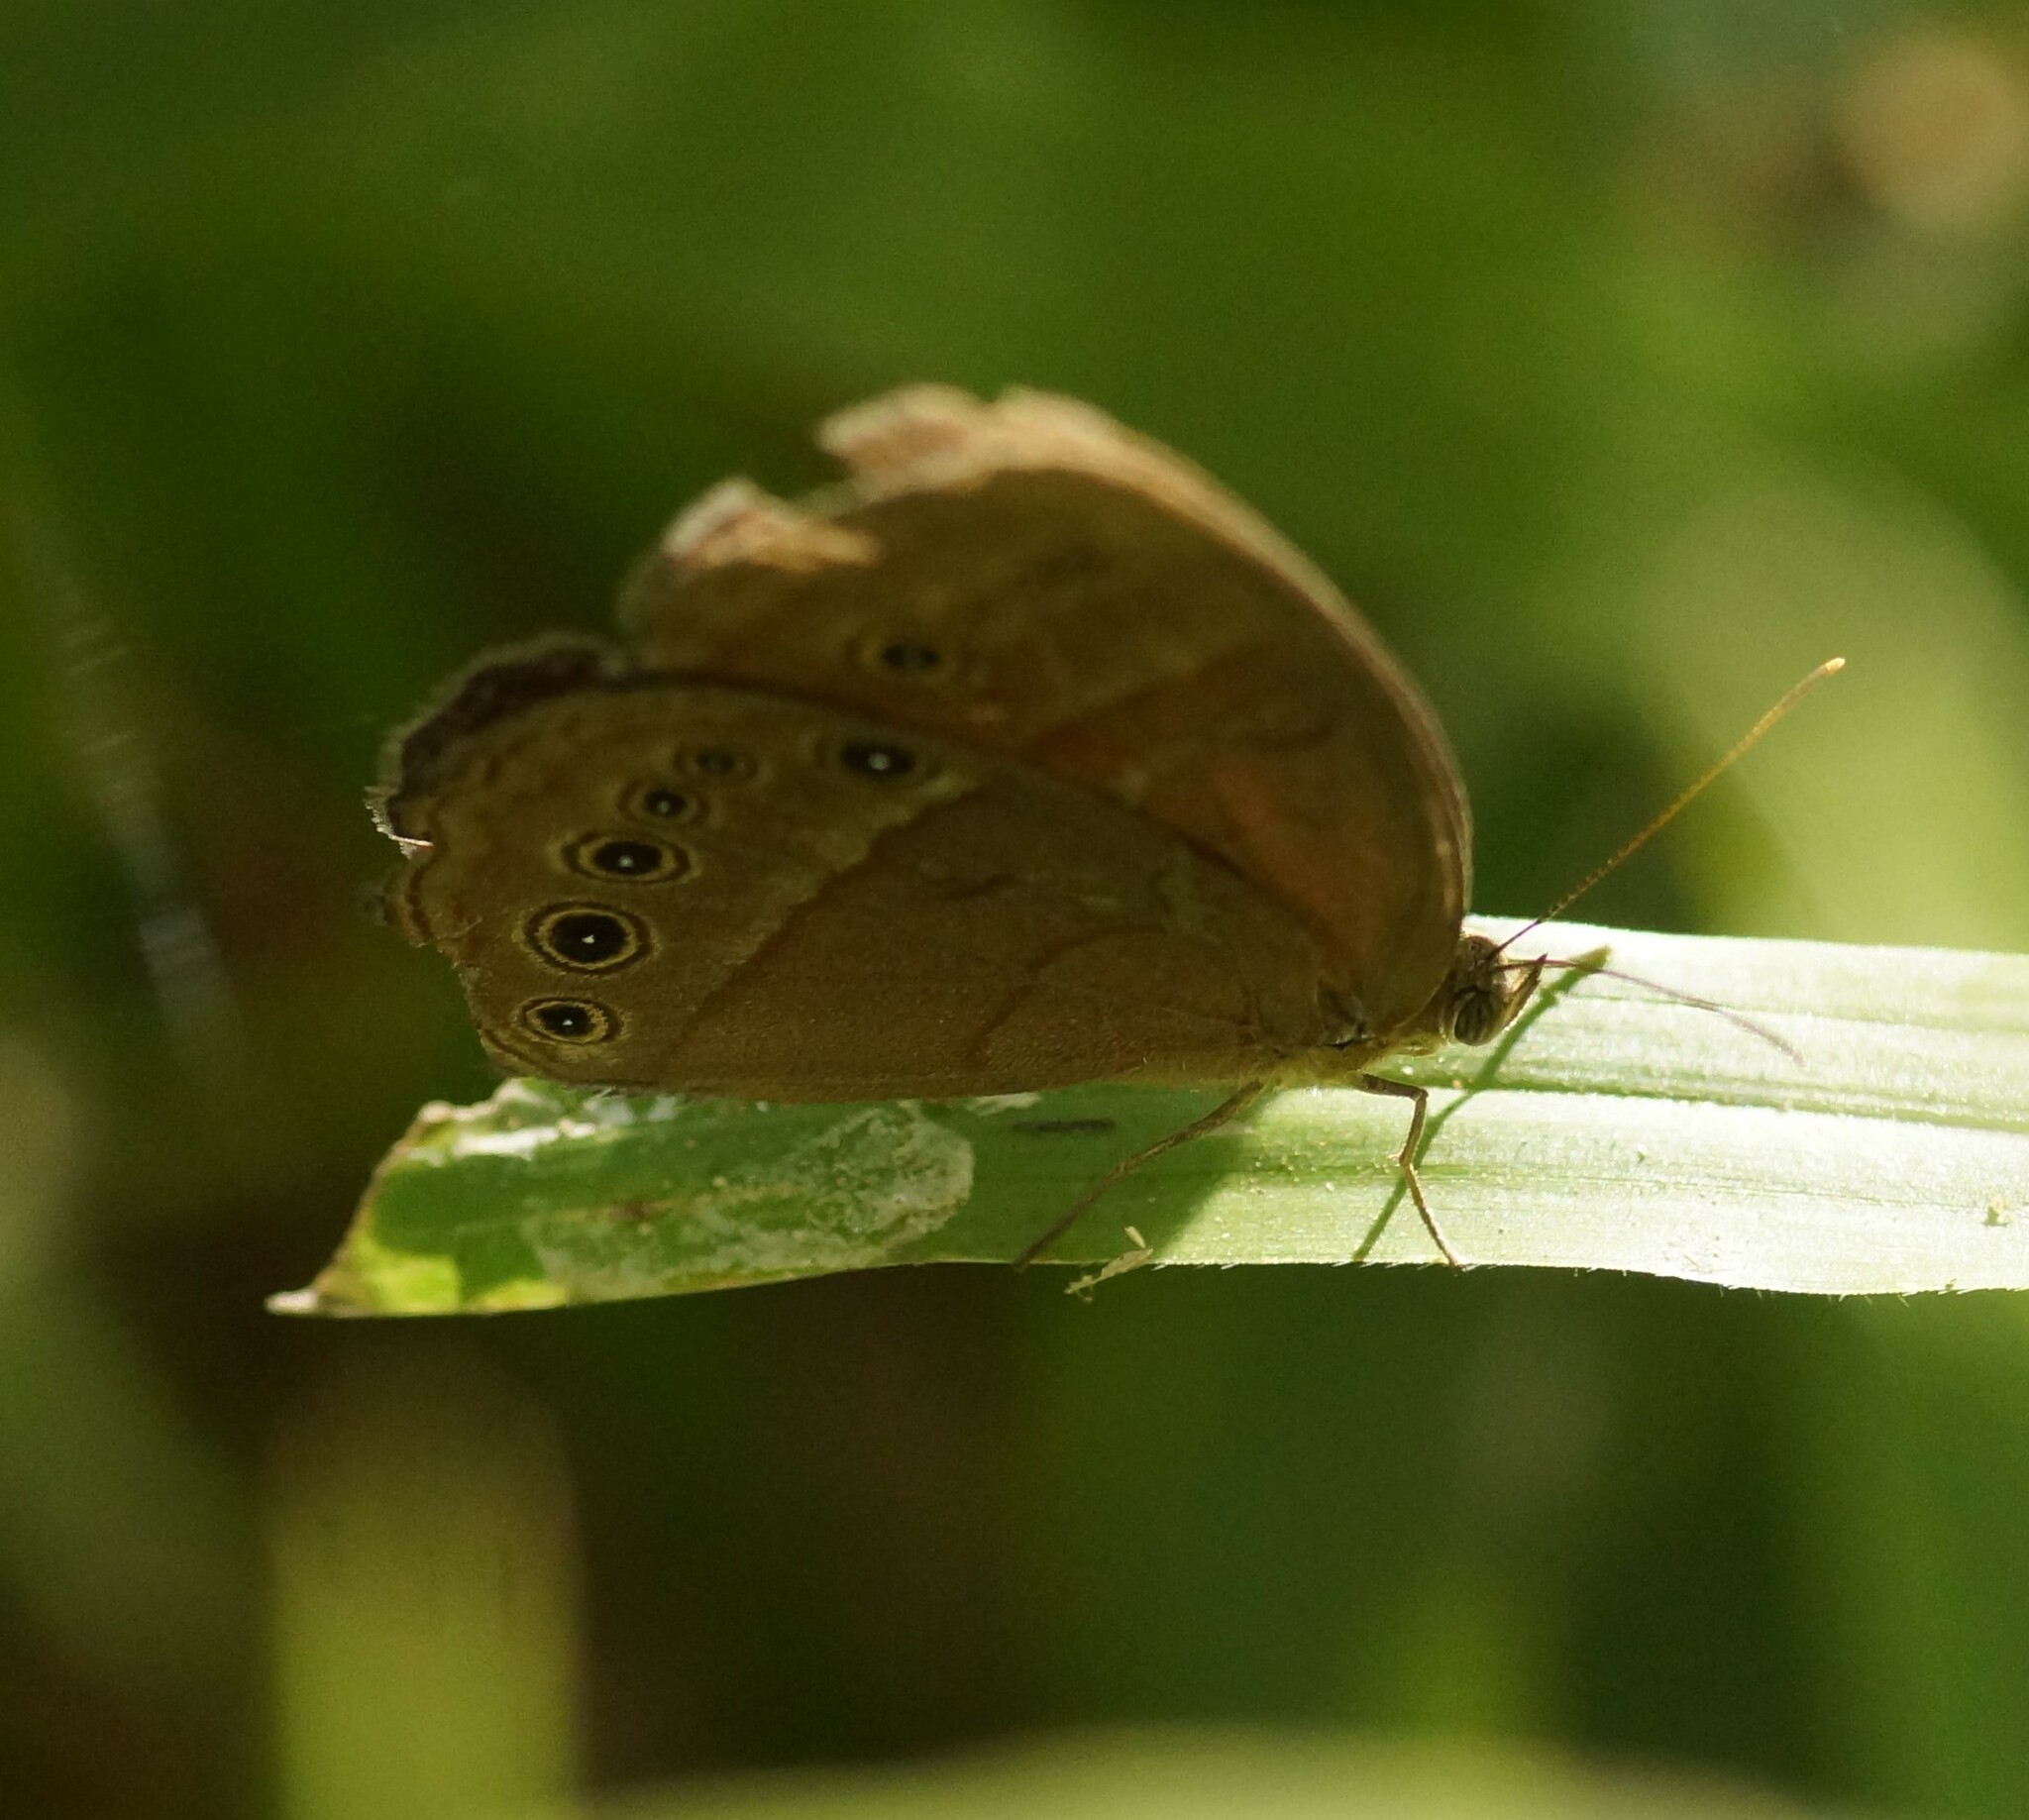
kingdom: Animalia
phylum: Arthropoda
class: Insecta
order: Lepidoptera
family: Nymphalidae
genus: Mycalesis
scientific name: Mycalesis perseus
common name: Dingy bushbrown
